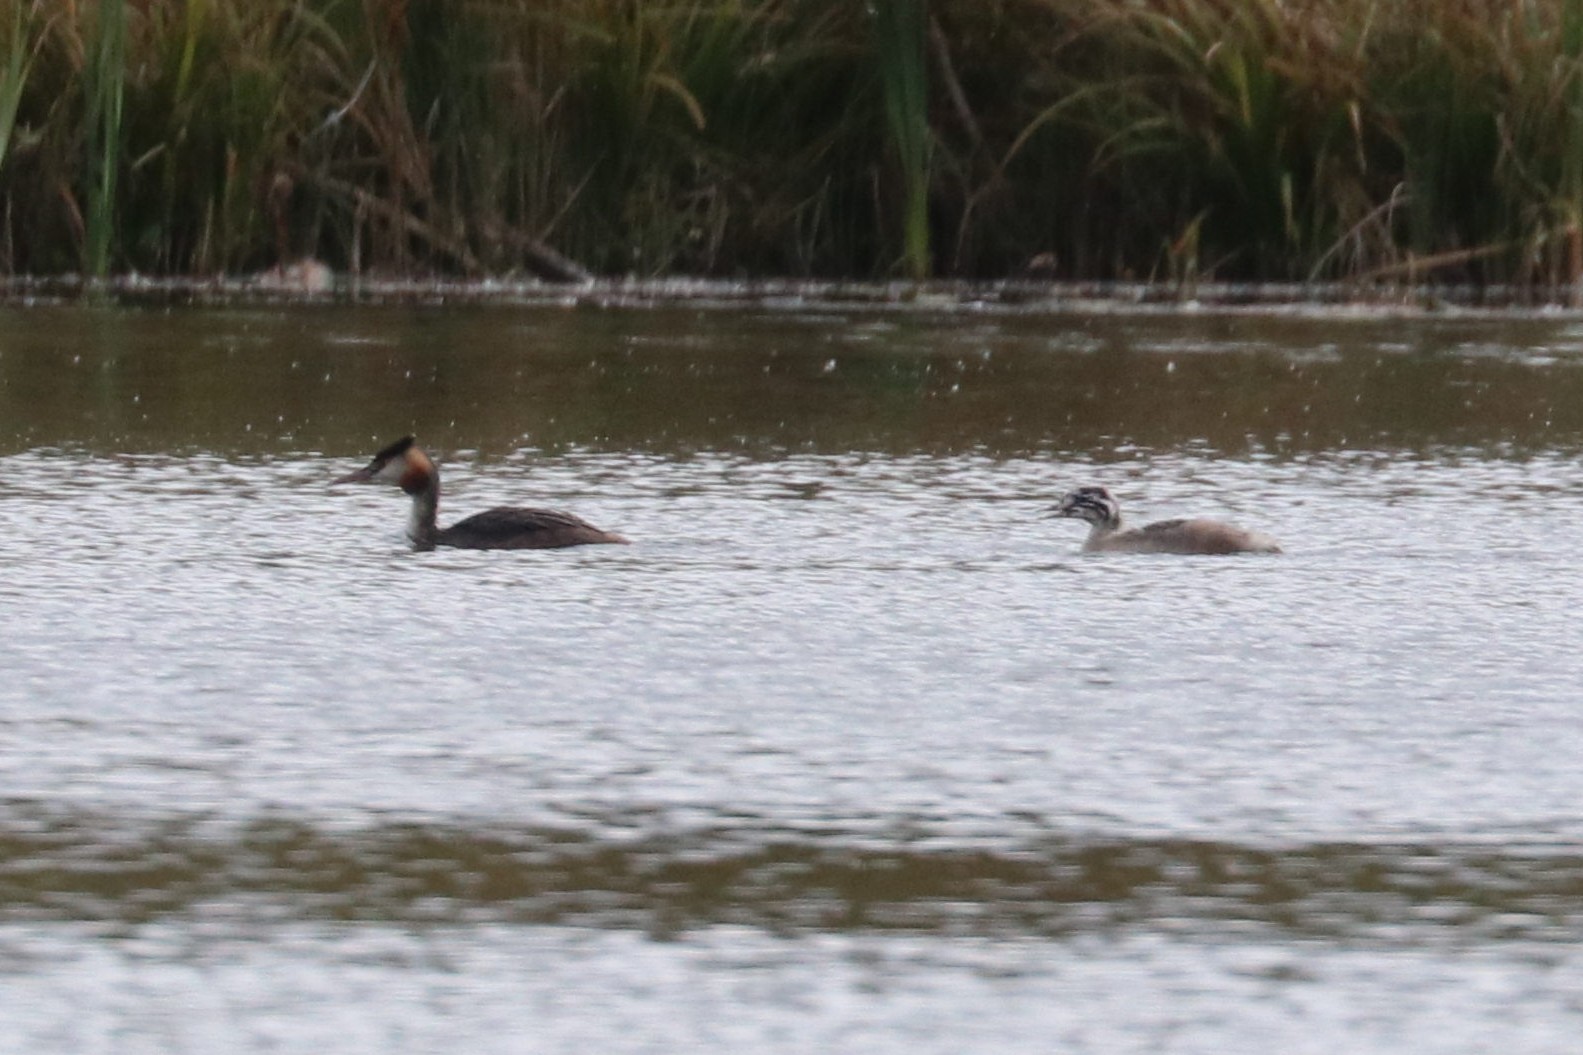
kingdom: Animalia
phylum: Chordata
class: Aves
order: Podicipediformes
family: Podicipedidae
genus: Podiceps
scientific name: Podiceps cristatus
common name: Great crested grebe
